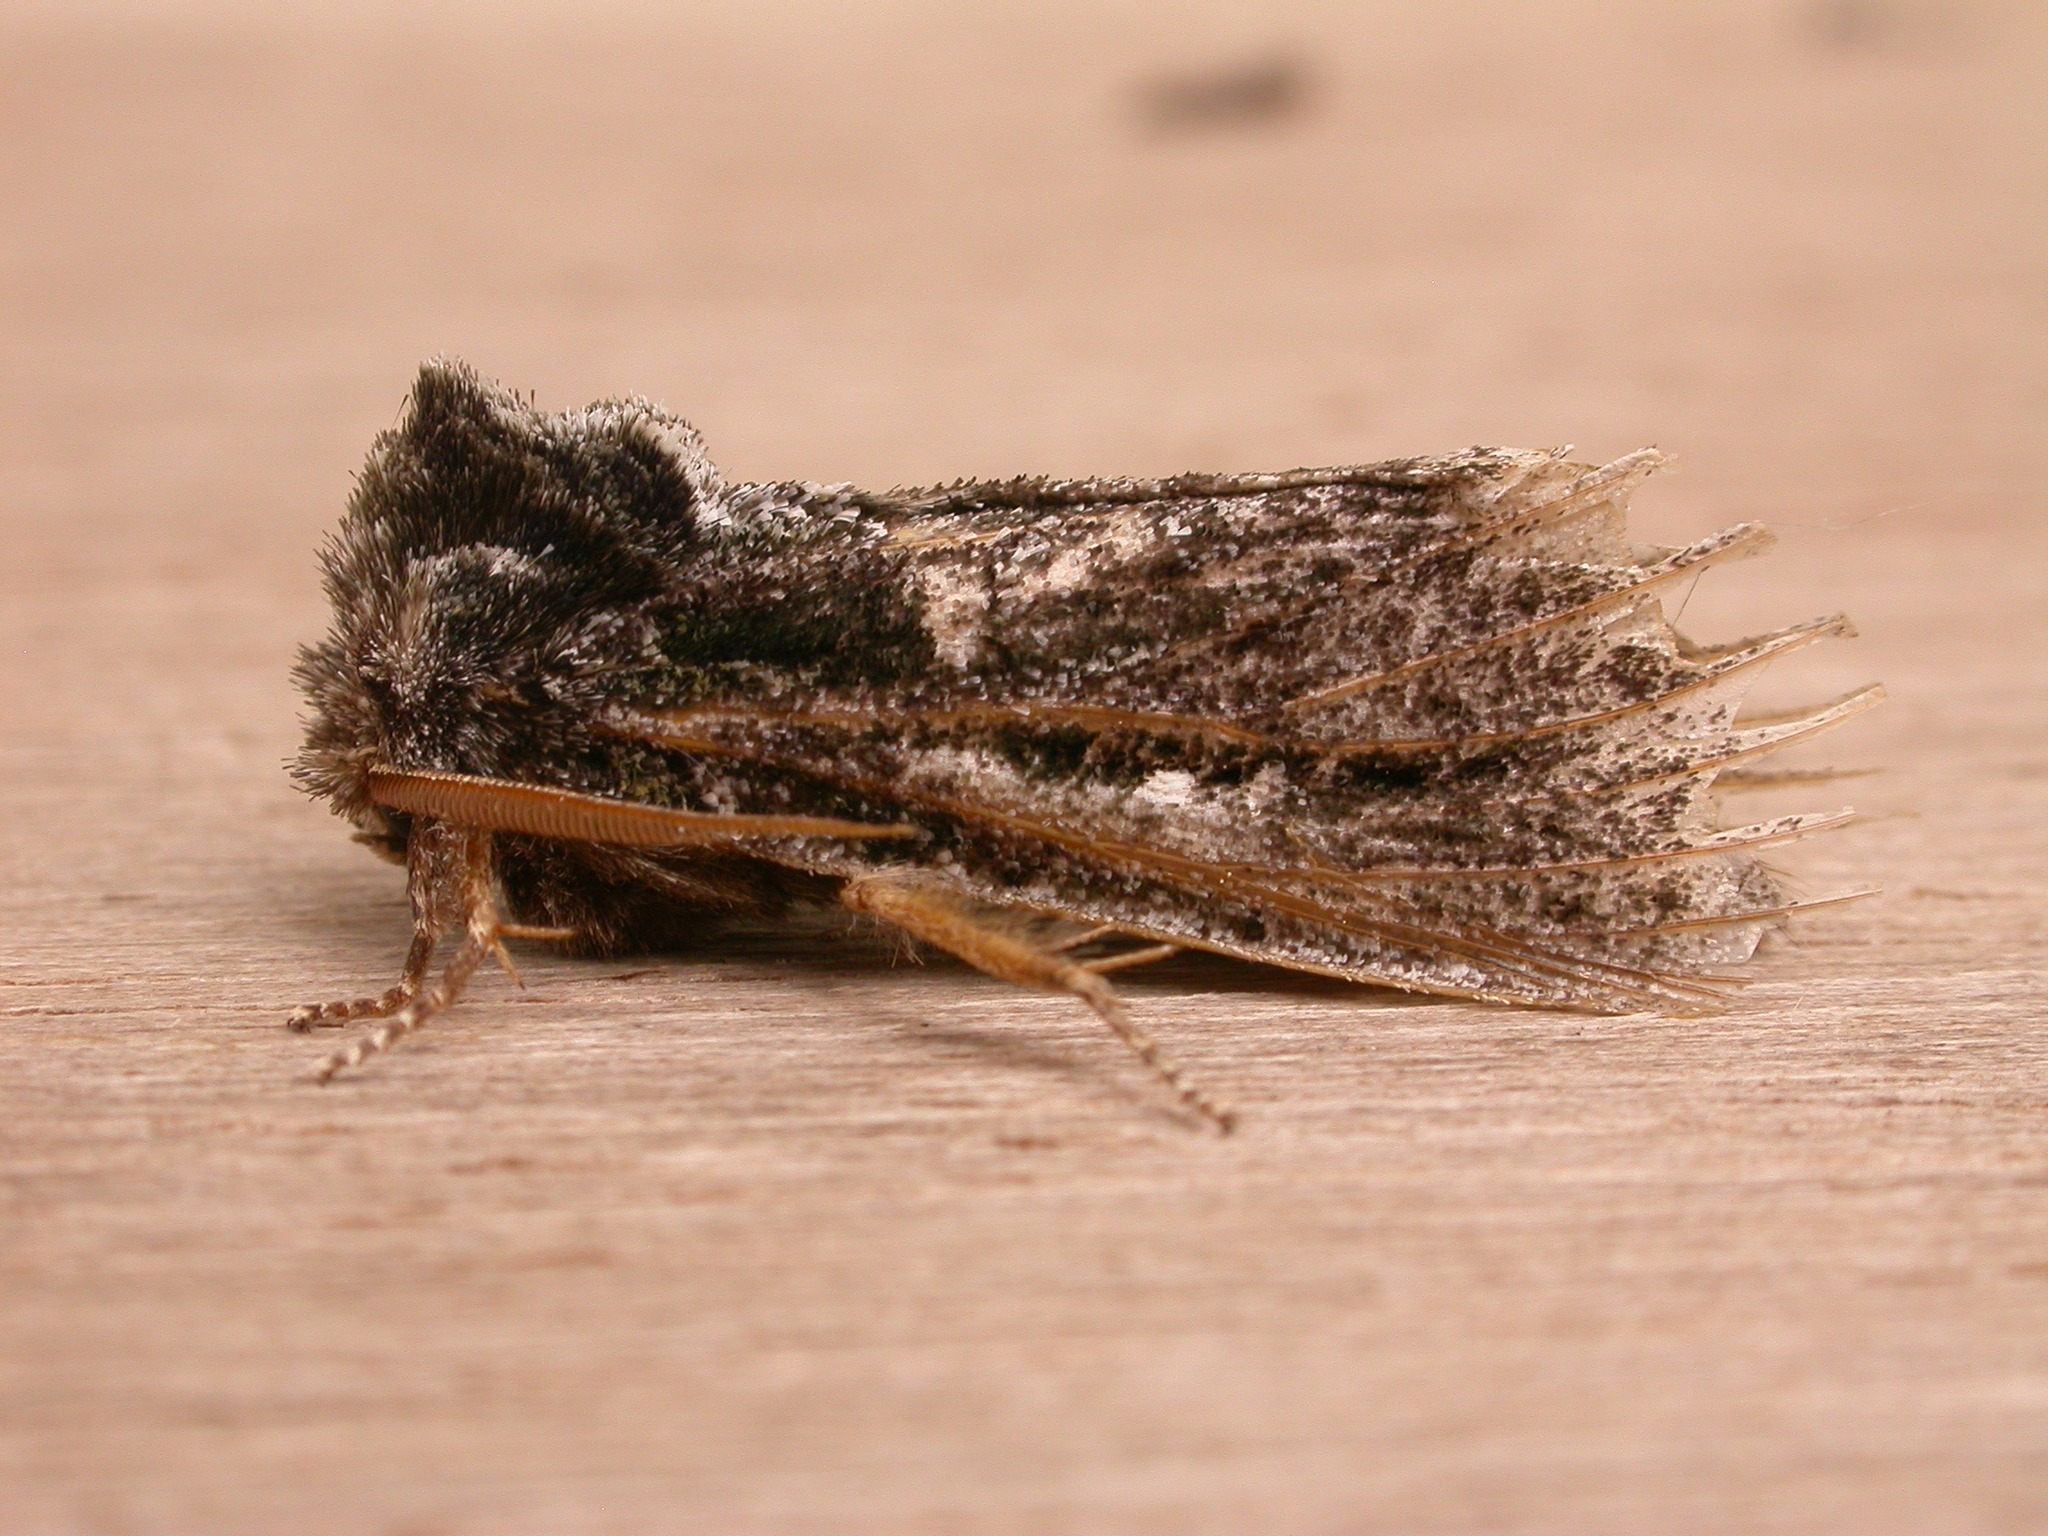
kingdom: Animalia
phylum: Arthropoda
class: Insecta
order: Lepidoptera
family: Notodontidae
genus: Neola
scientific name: Neola semiaurata
